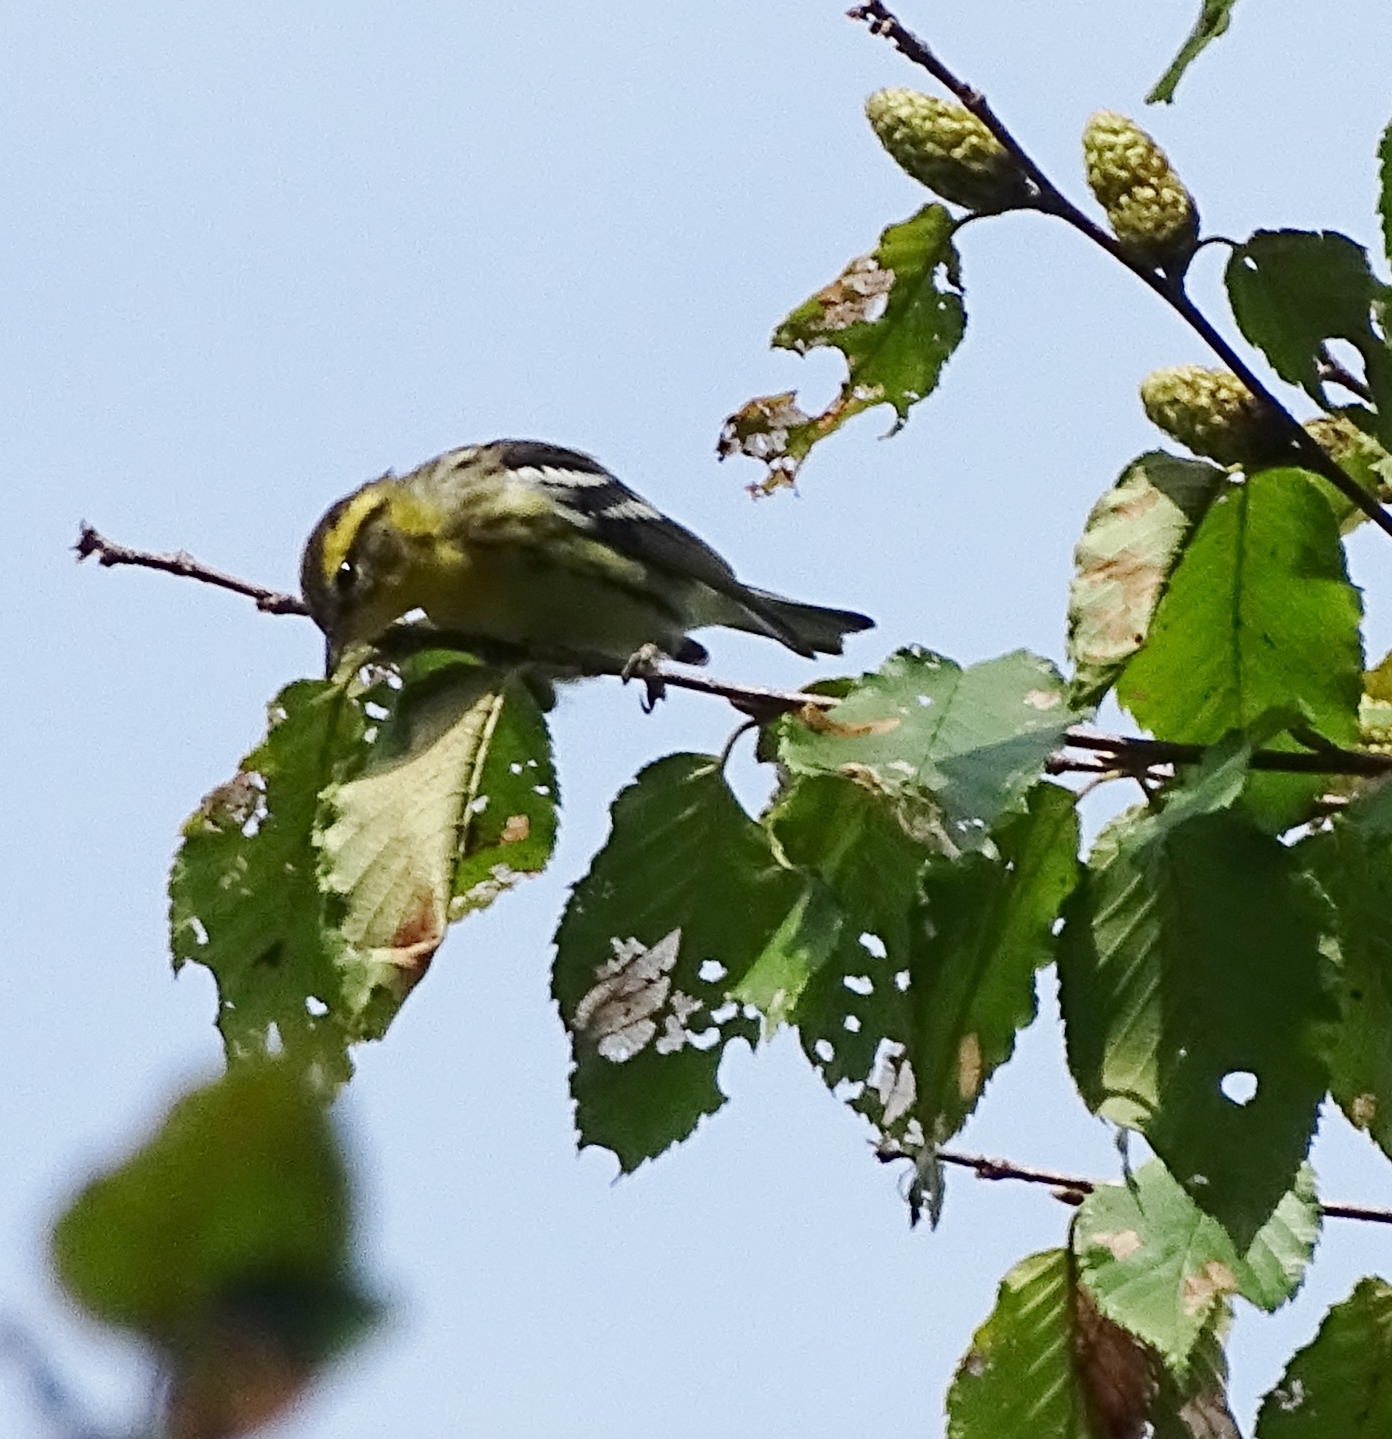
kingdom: Animalia
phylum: Chordata
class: Aves
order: Passeriformes
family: Parulidae
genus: Setophaga
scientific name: Setophaga fusca
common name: Blackburnian warbler
